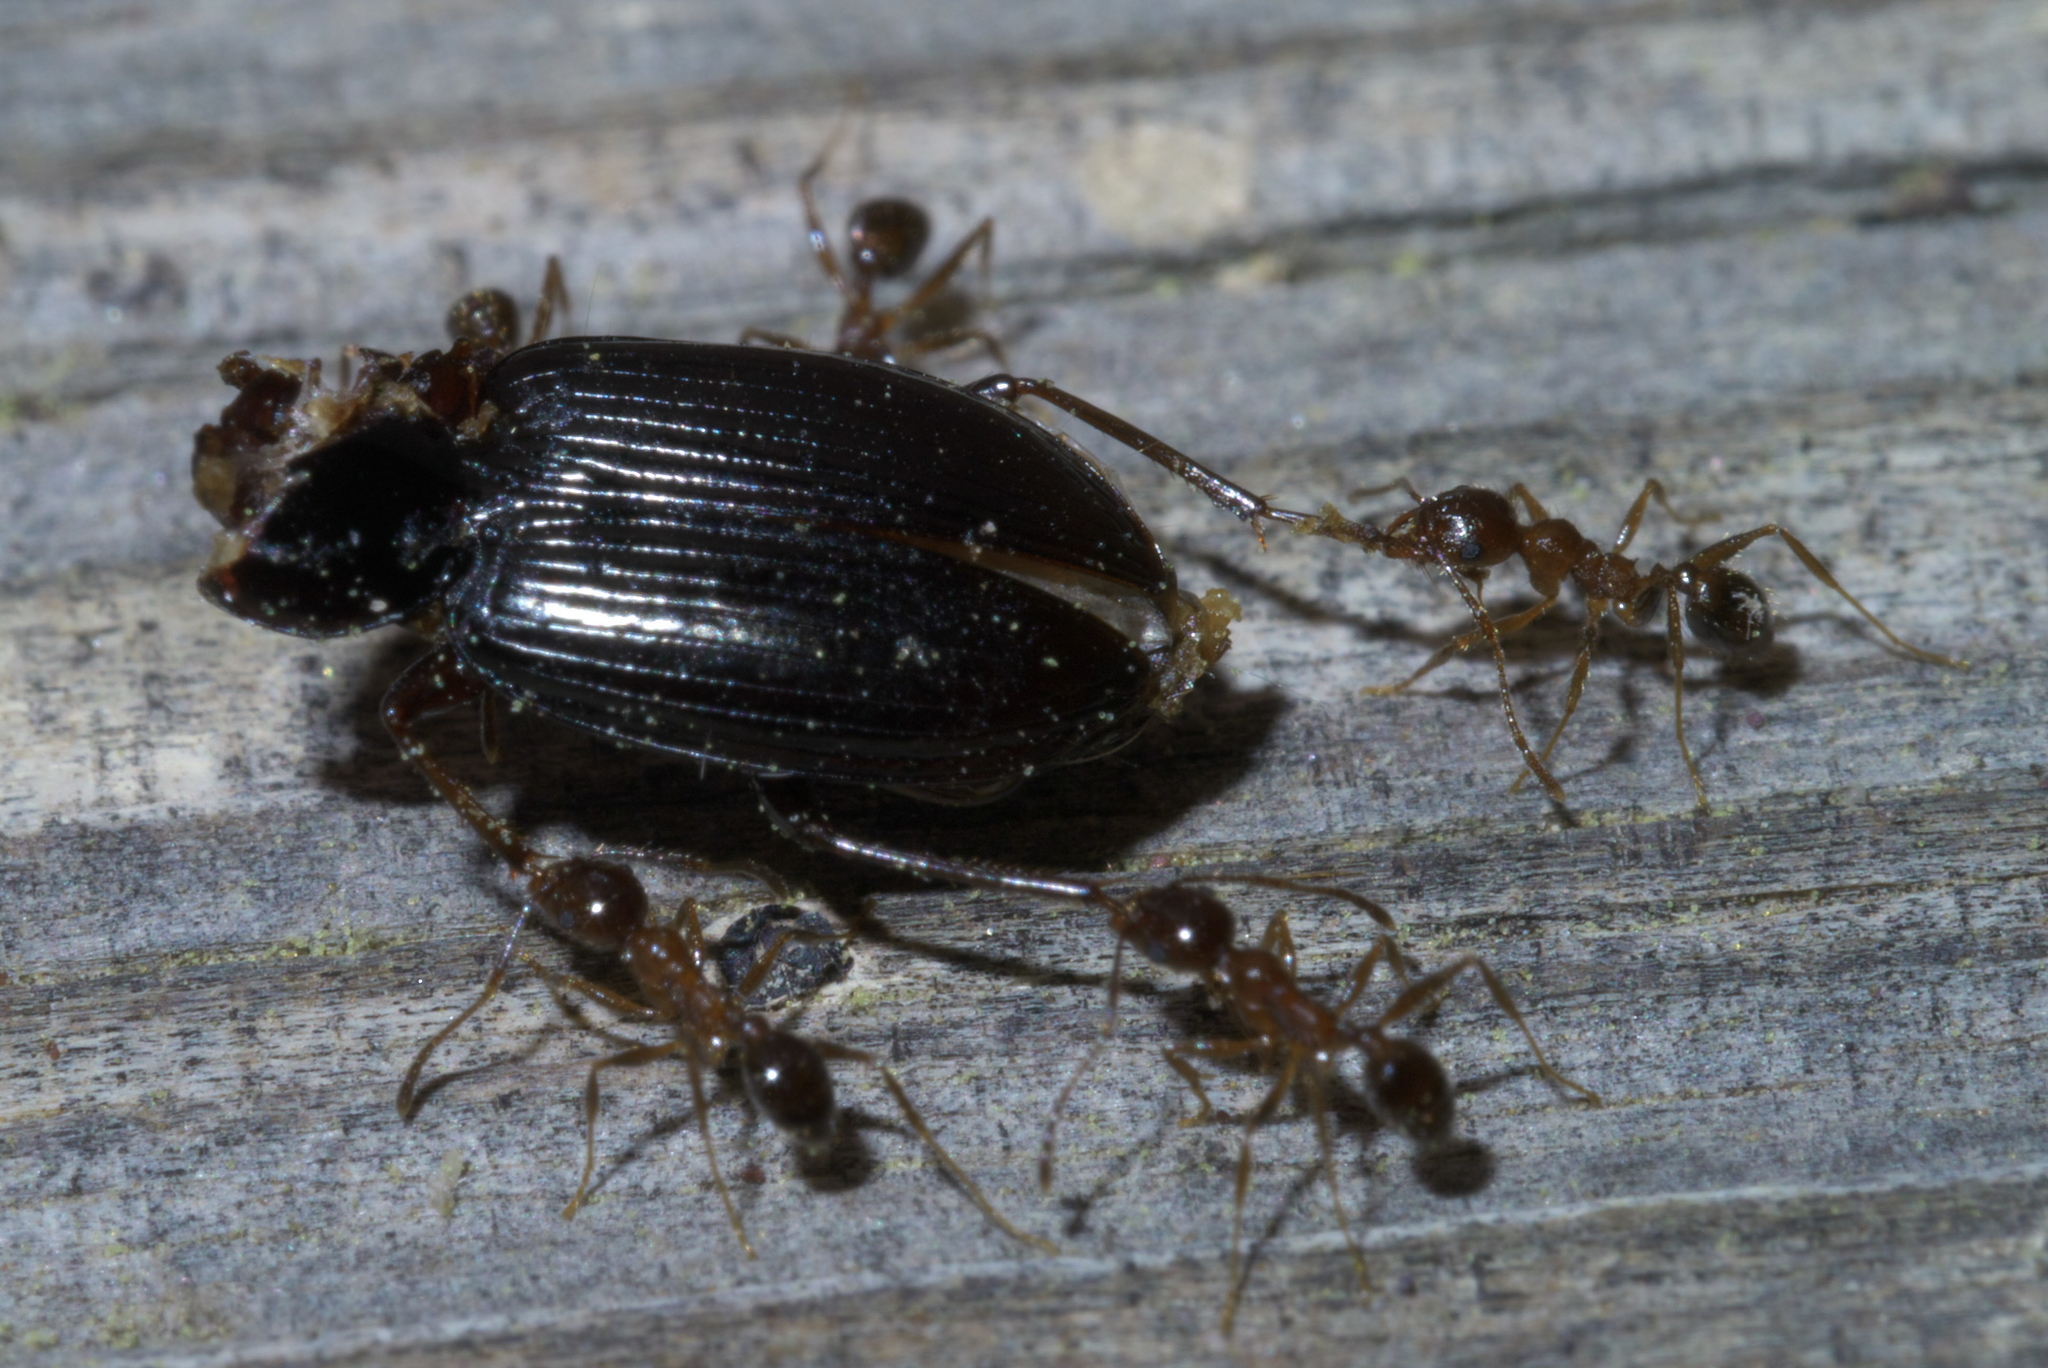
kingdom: Animalia
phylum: Arthropoda
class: Insecta
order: Hymenoptera
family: Formicidae
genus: Pheidole
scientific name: Pheidole dentata
